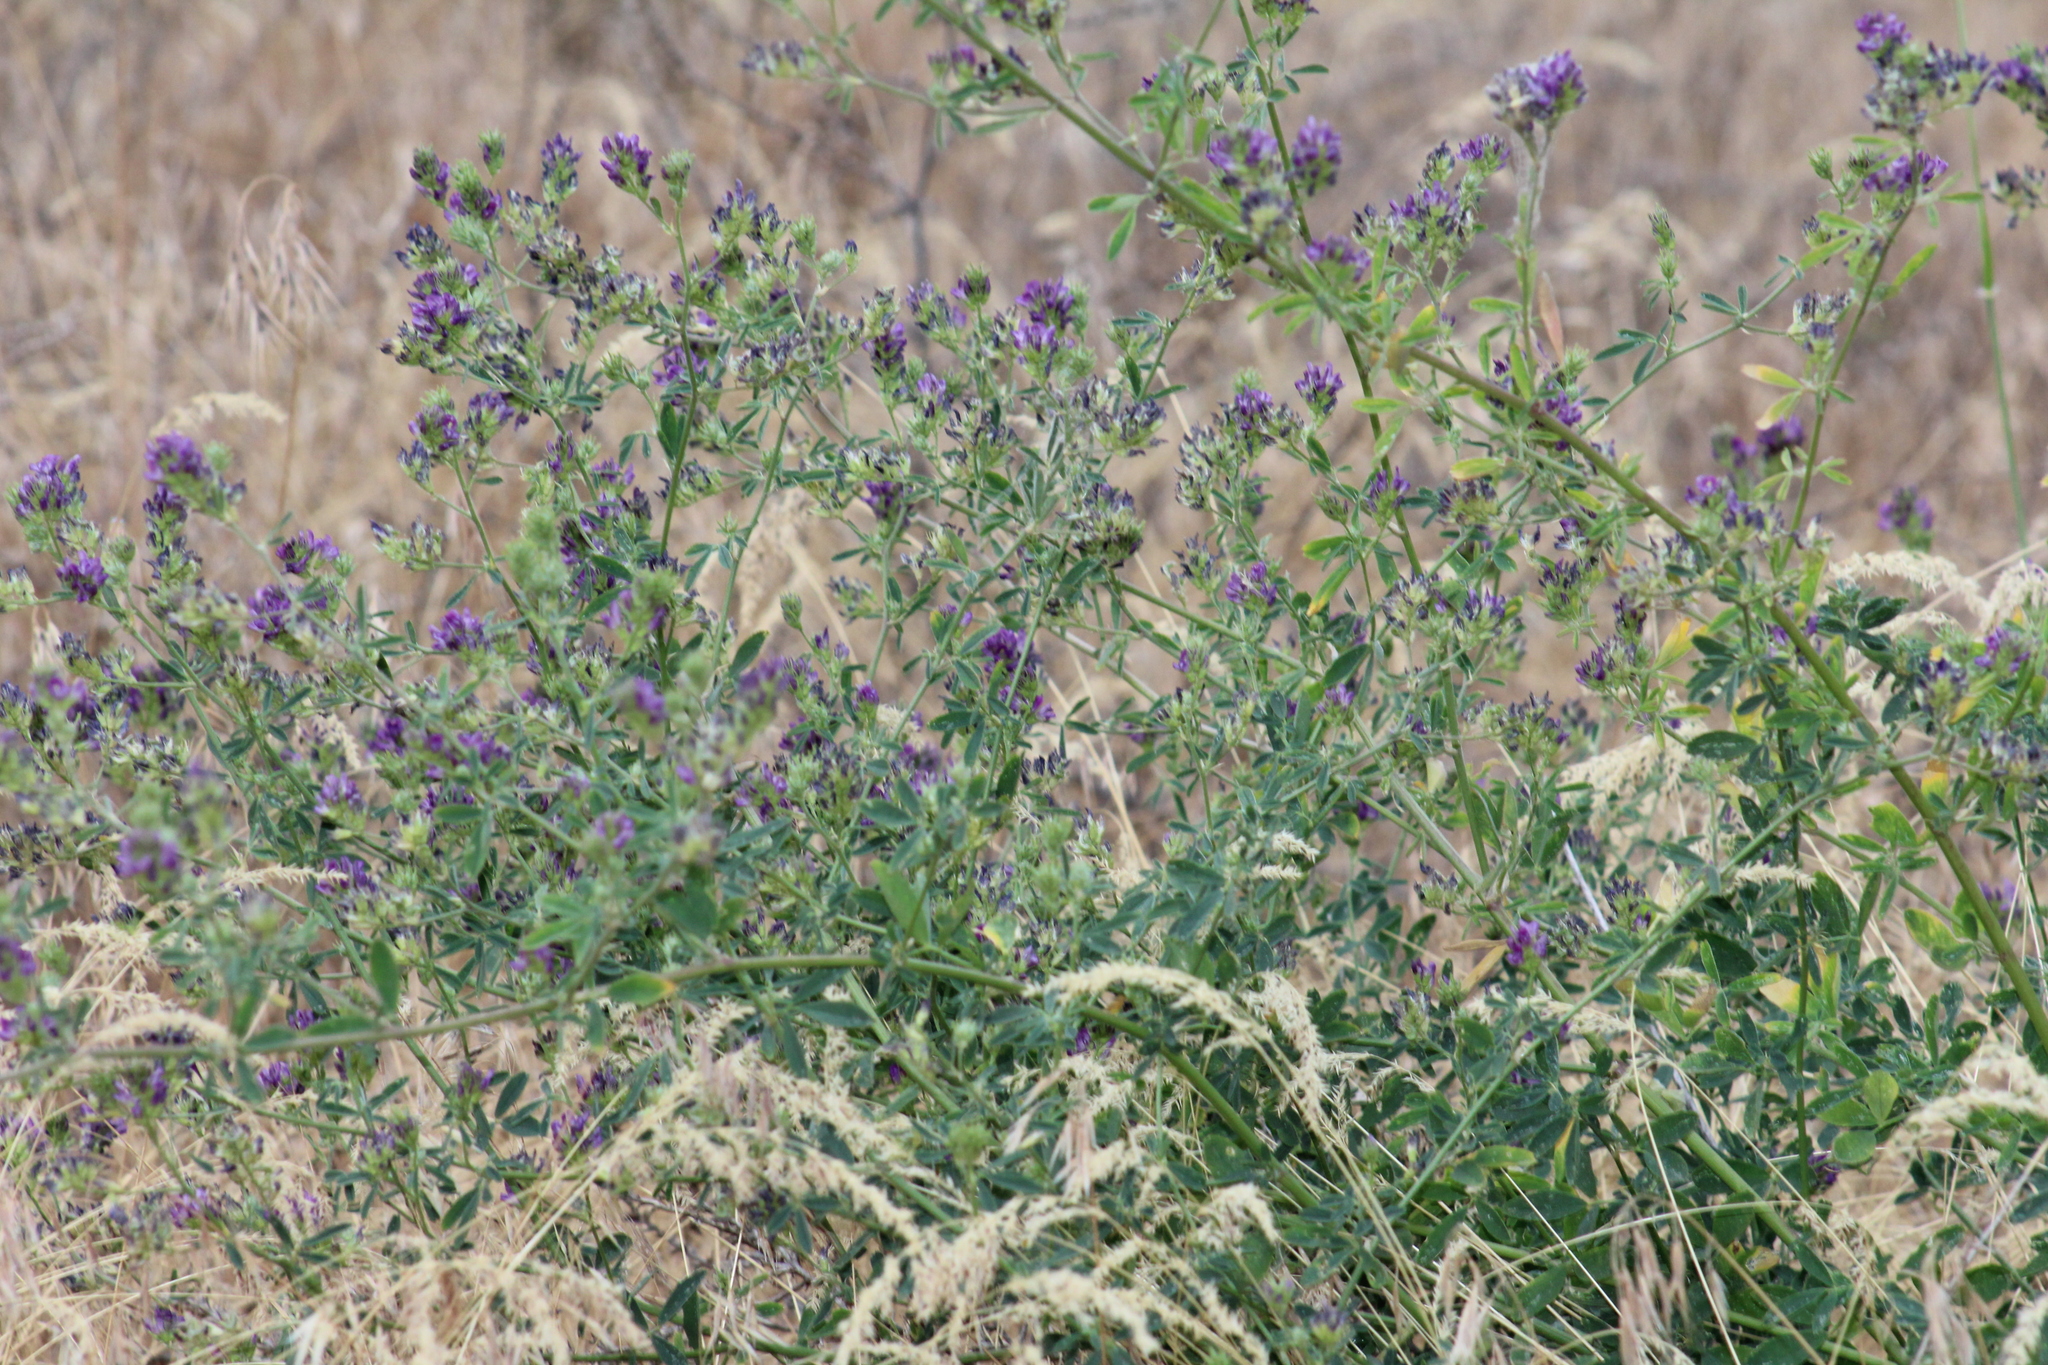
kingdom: Plantae
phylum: Tracheophyta
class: Magnoliopsida
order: Fabales
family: Fabaceae
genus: Medicago
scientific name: Medicago sativa
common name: Alfalfa
